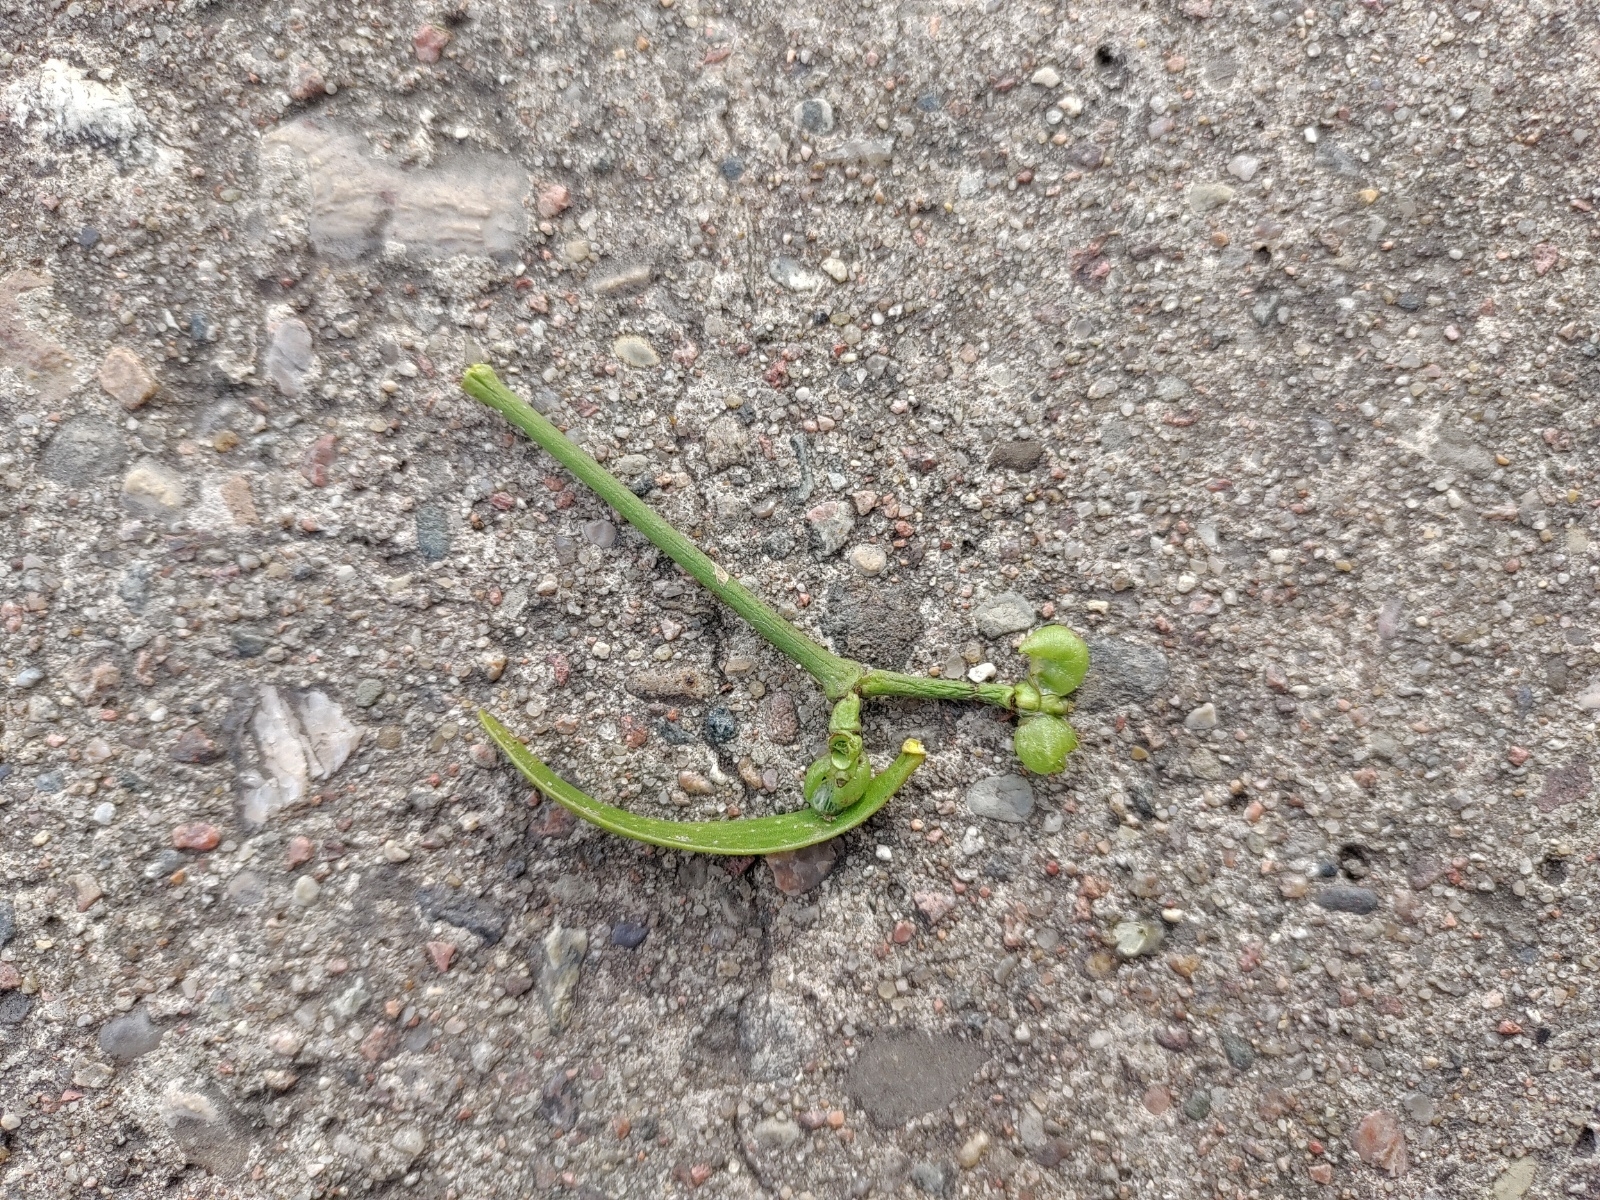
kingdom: Plantae
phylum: Tracheophyta
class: Magnoliopsida
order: Santalales
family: Viscaceae
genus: Viscum
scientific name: Viscum album
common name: Mistletoe
